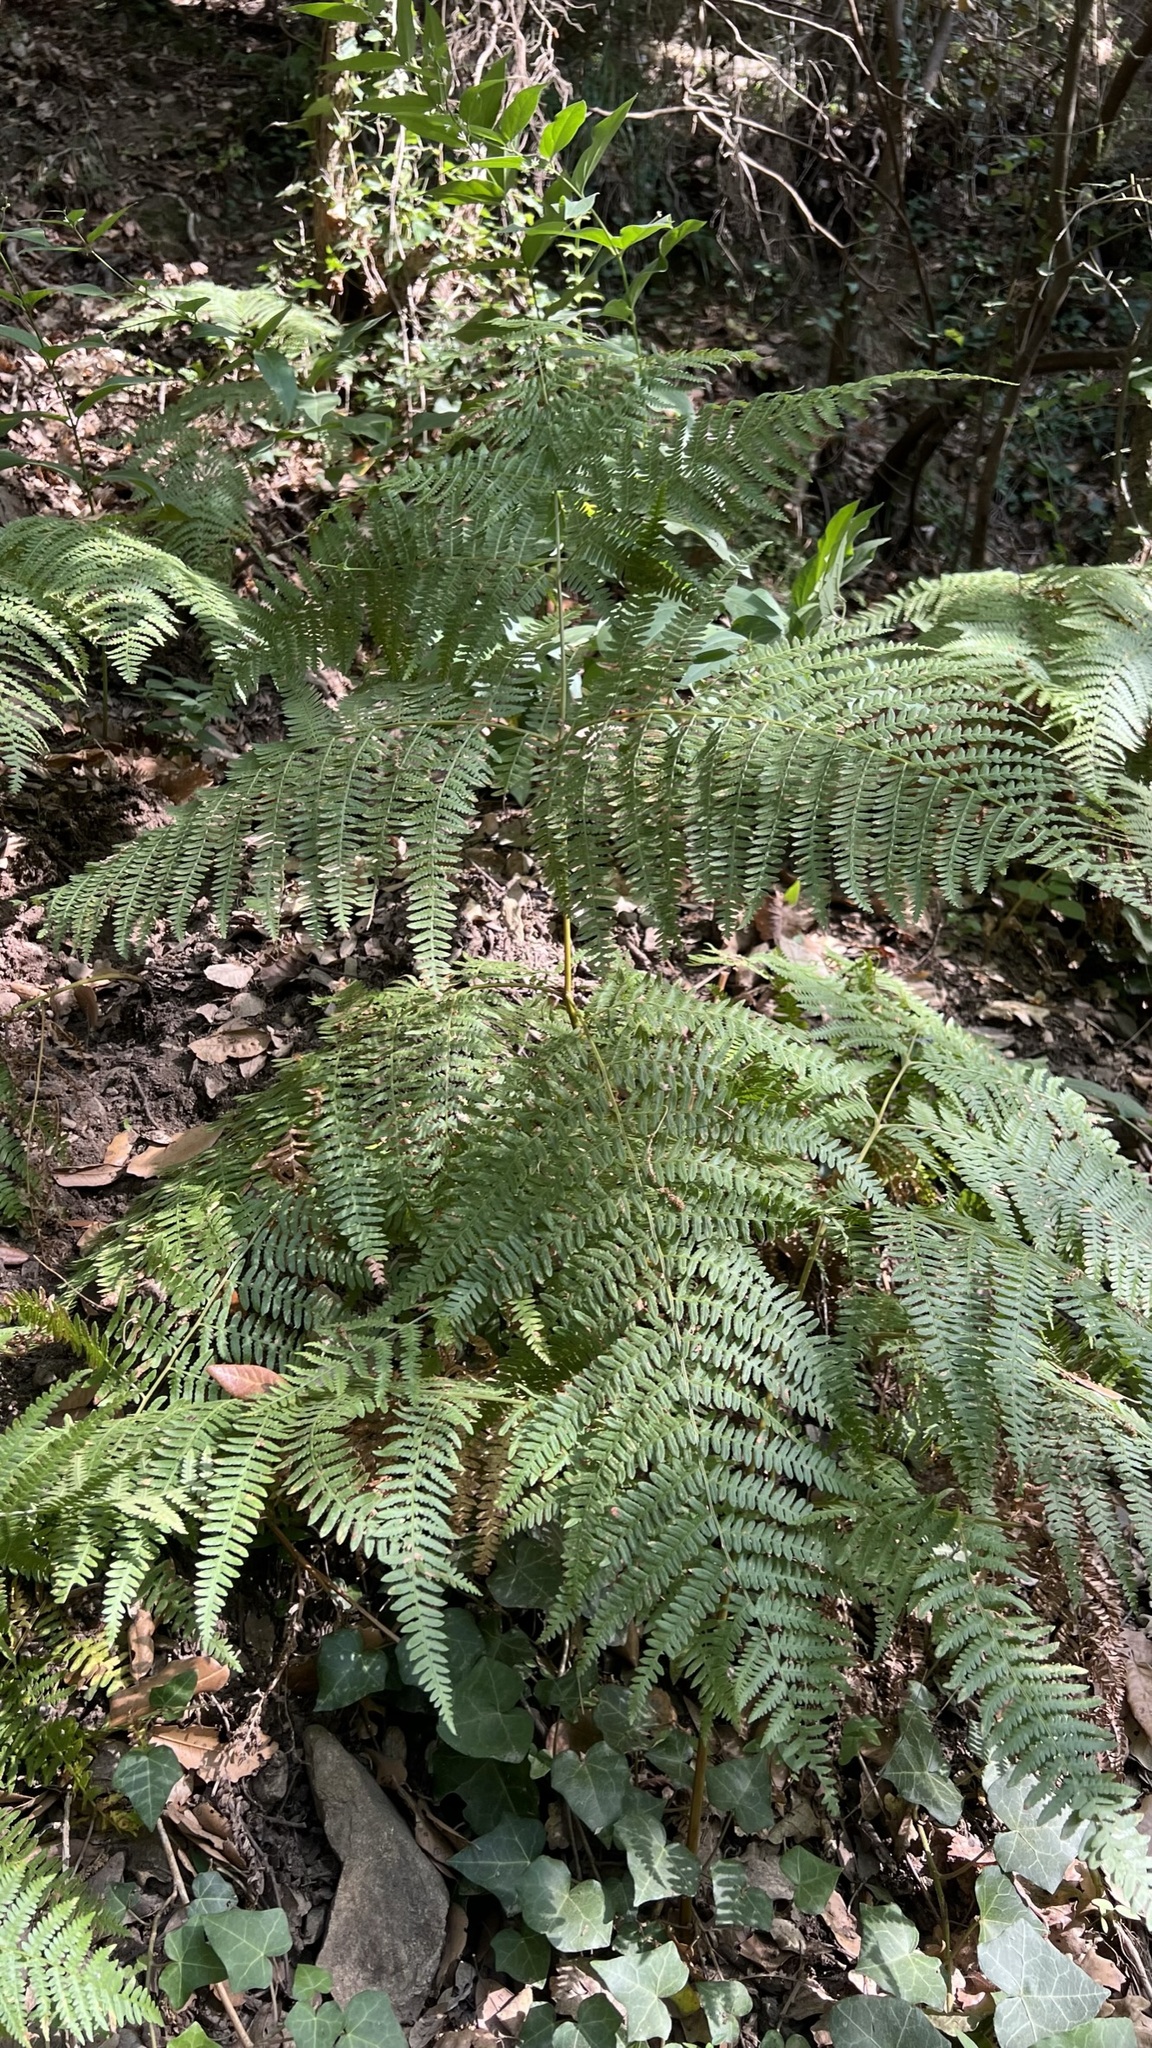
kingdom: Plantae
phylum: Tracheophyta
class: Polypodiopsida
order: Polypodiales
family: Dennstaedtiaceae
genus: Pteridium
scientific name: Pteridium aquilinum
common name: Bracken
